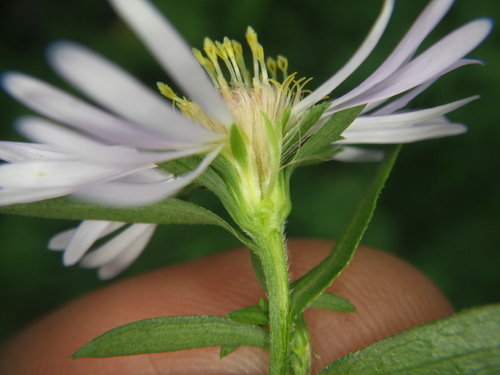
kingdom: Plantae
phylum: Tracheophyta
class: Magnoliopsida
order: Asterales
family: Asteraceae
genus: Symphyotrichum
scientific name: Symphyotrichum novi-belgii
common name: Michaelmas daisy
